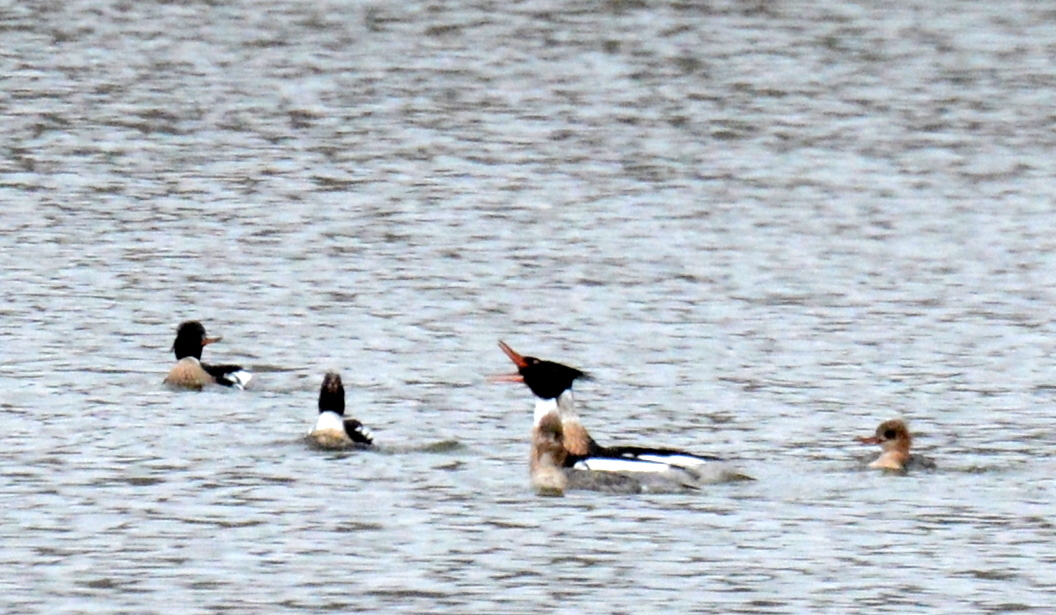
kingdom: Animalia
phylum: Chordata
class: Aves
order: Anseriformes
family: Anatidae
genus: Mergus
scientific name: Mergus serrator
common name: Red-breasted merganser
